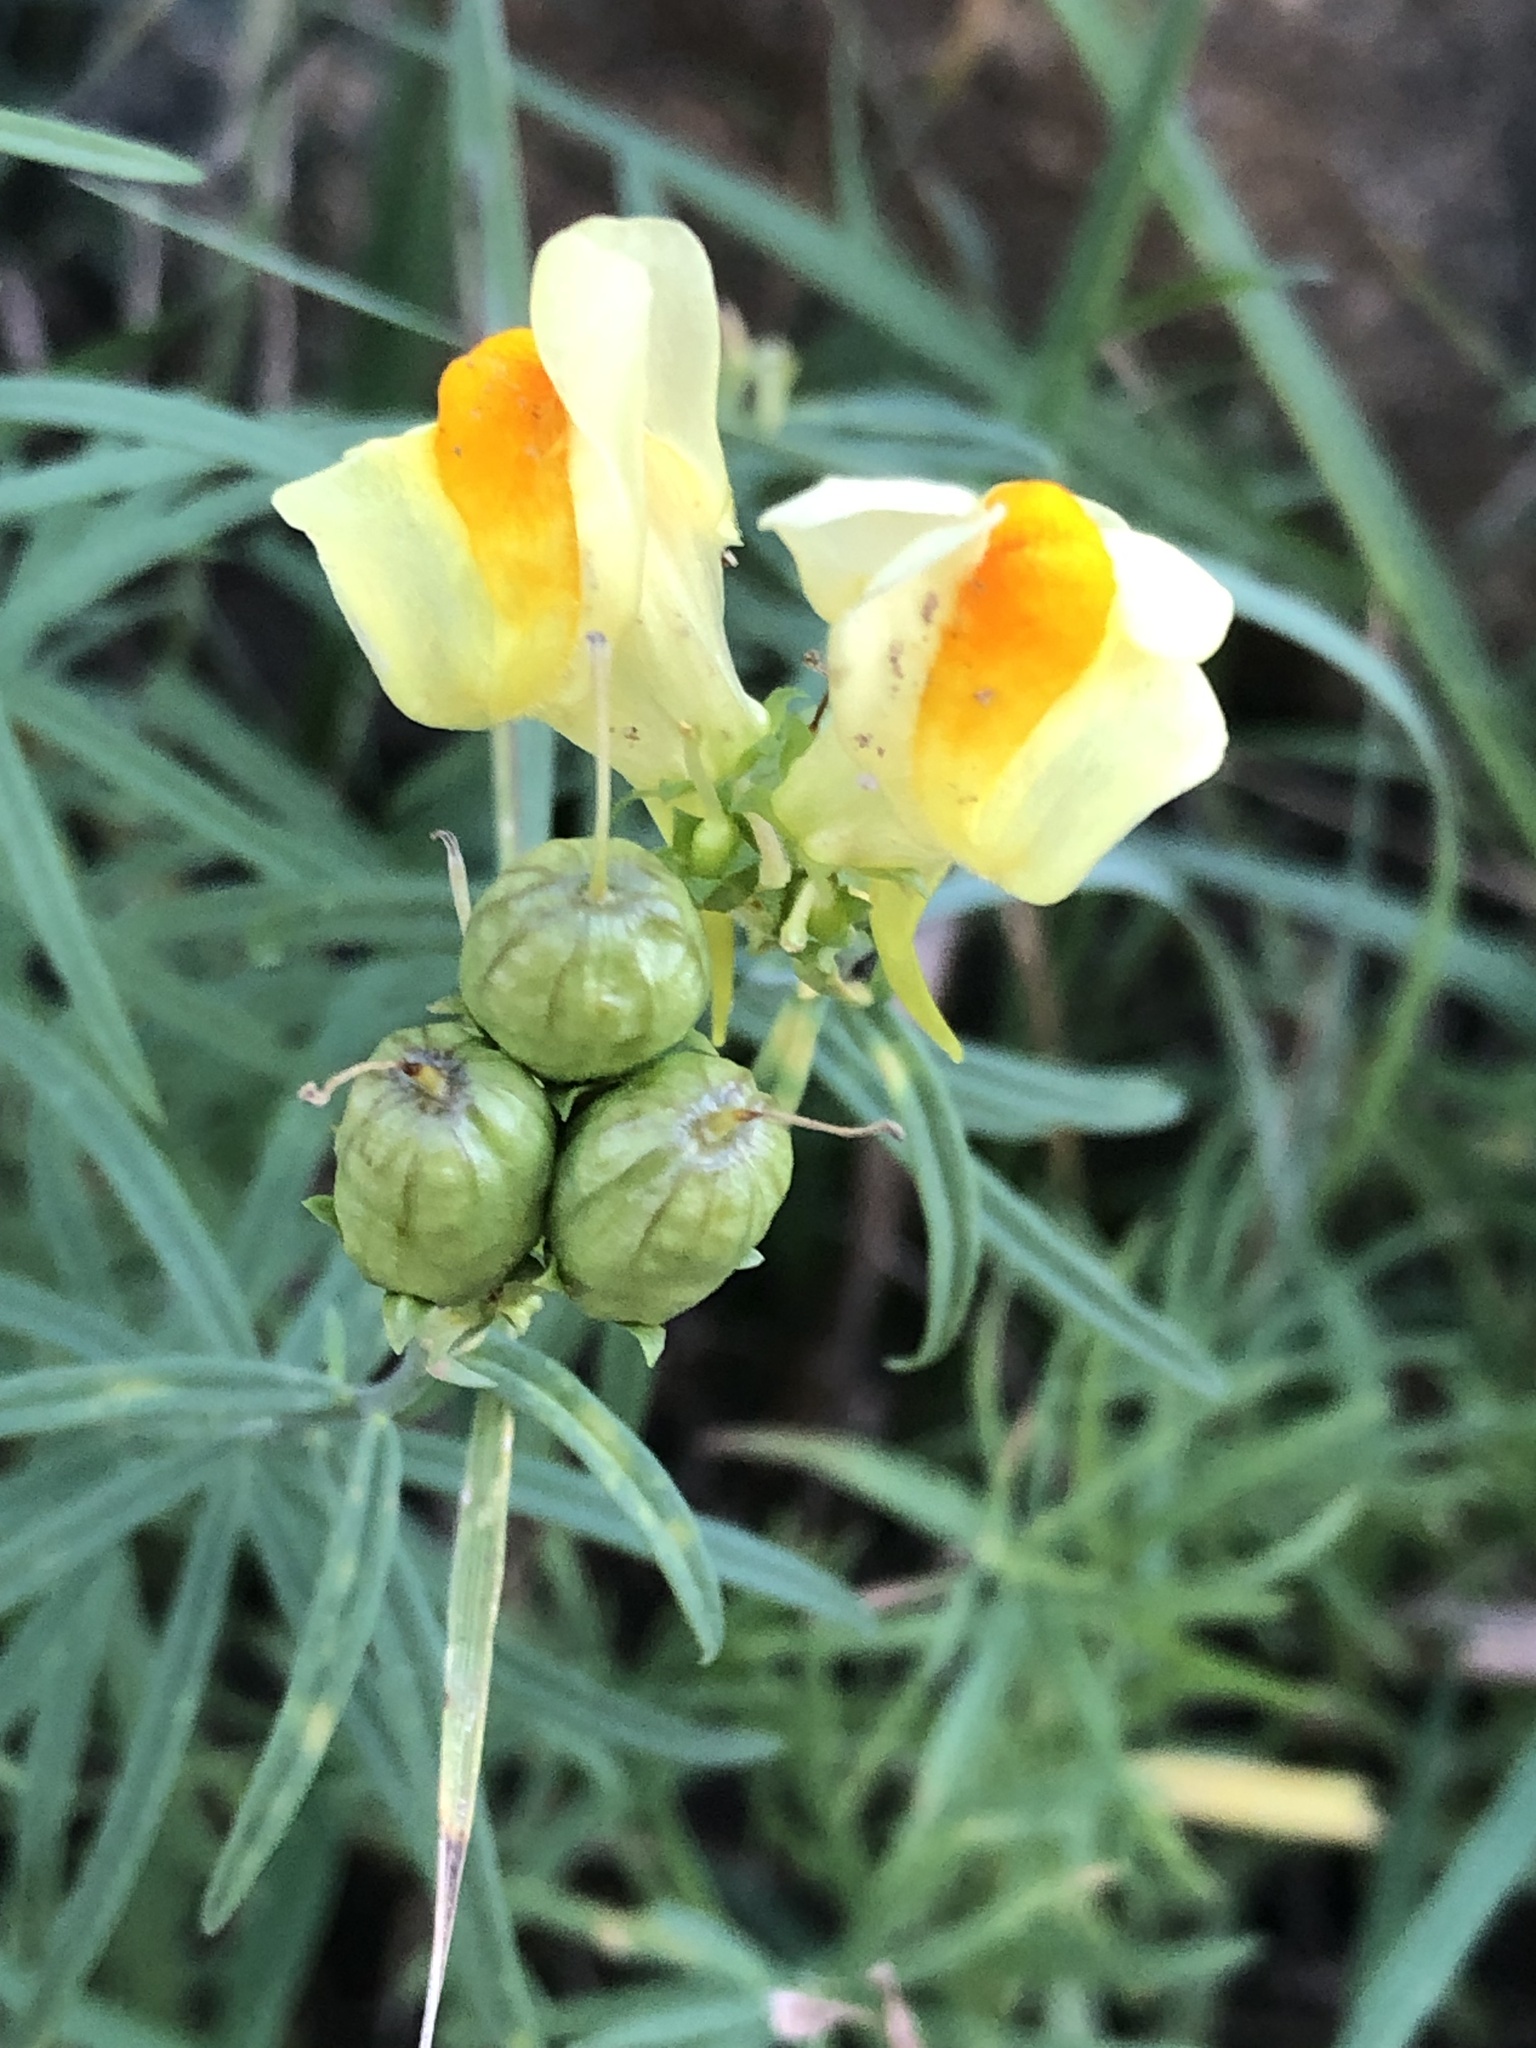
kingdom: Plantae
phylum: Tracheophyta
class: Magnoliopsida
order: Lamiales
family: Plantaginaceae
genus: Linaria
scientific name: Linaria vulgaris
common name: Butter and eggs
